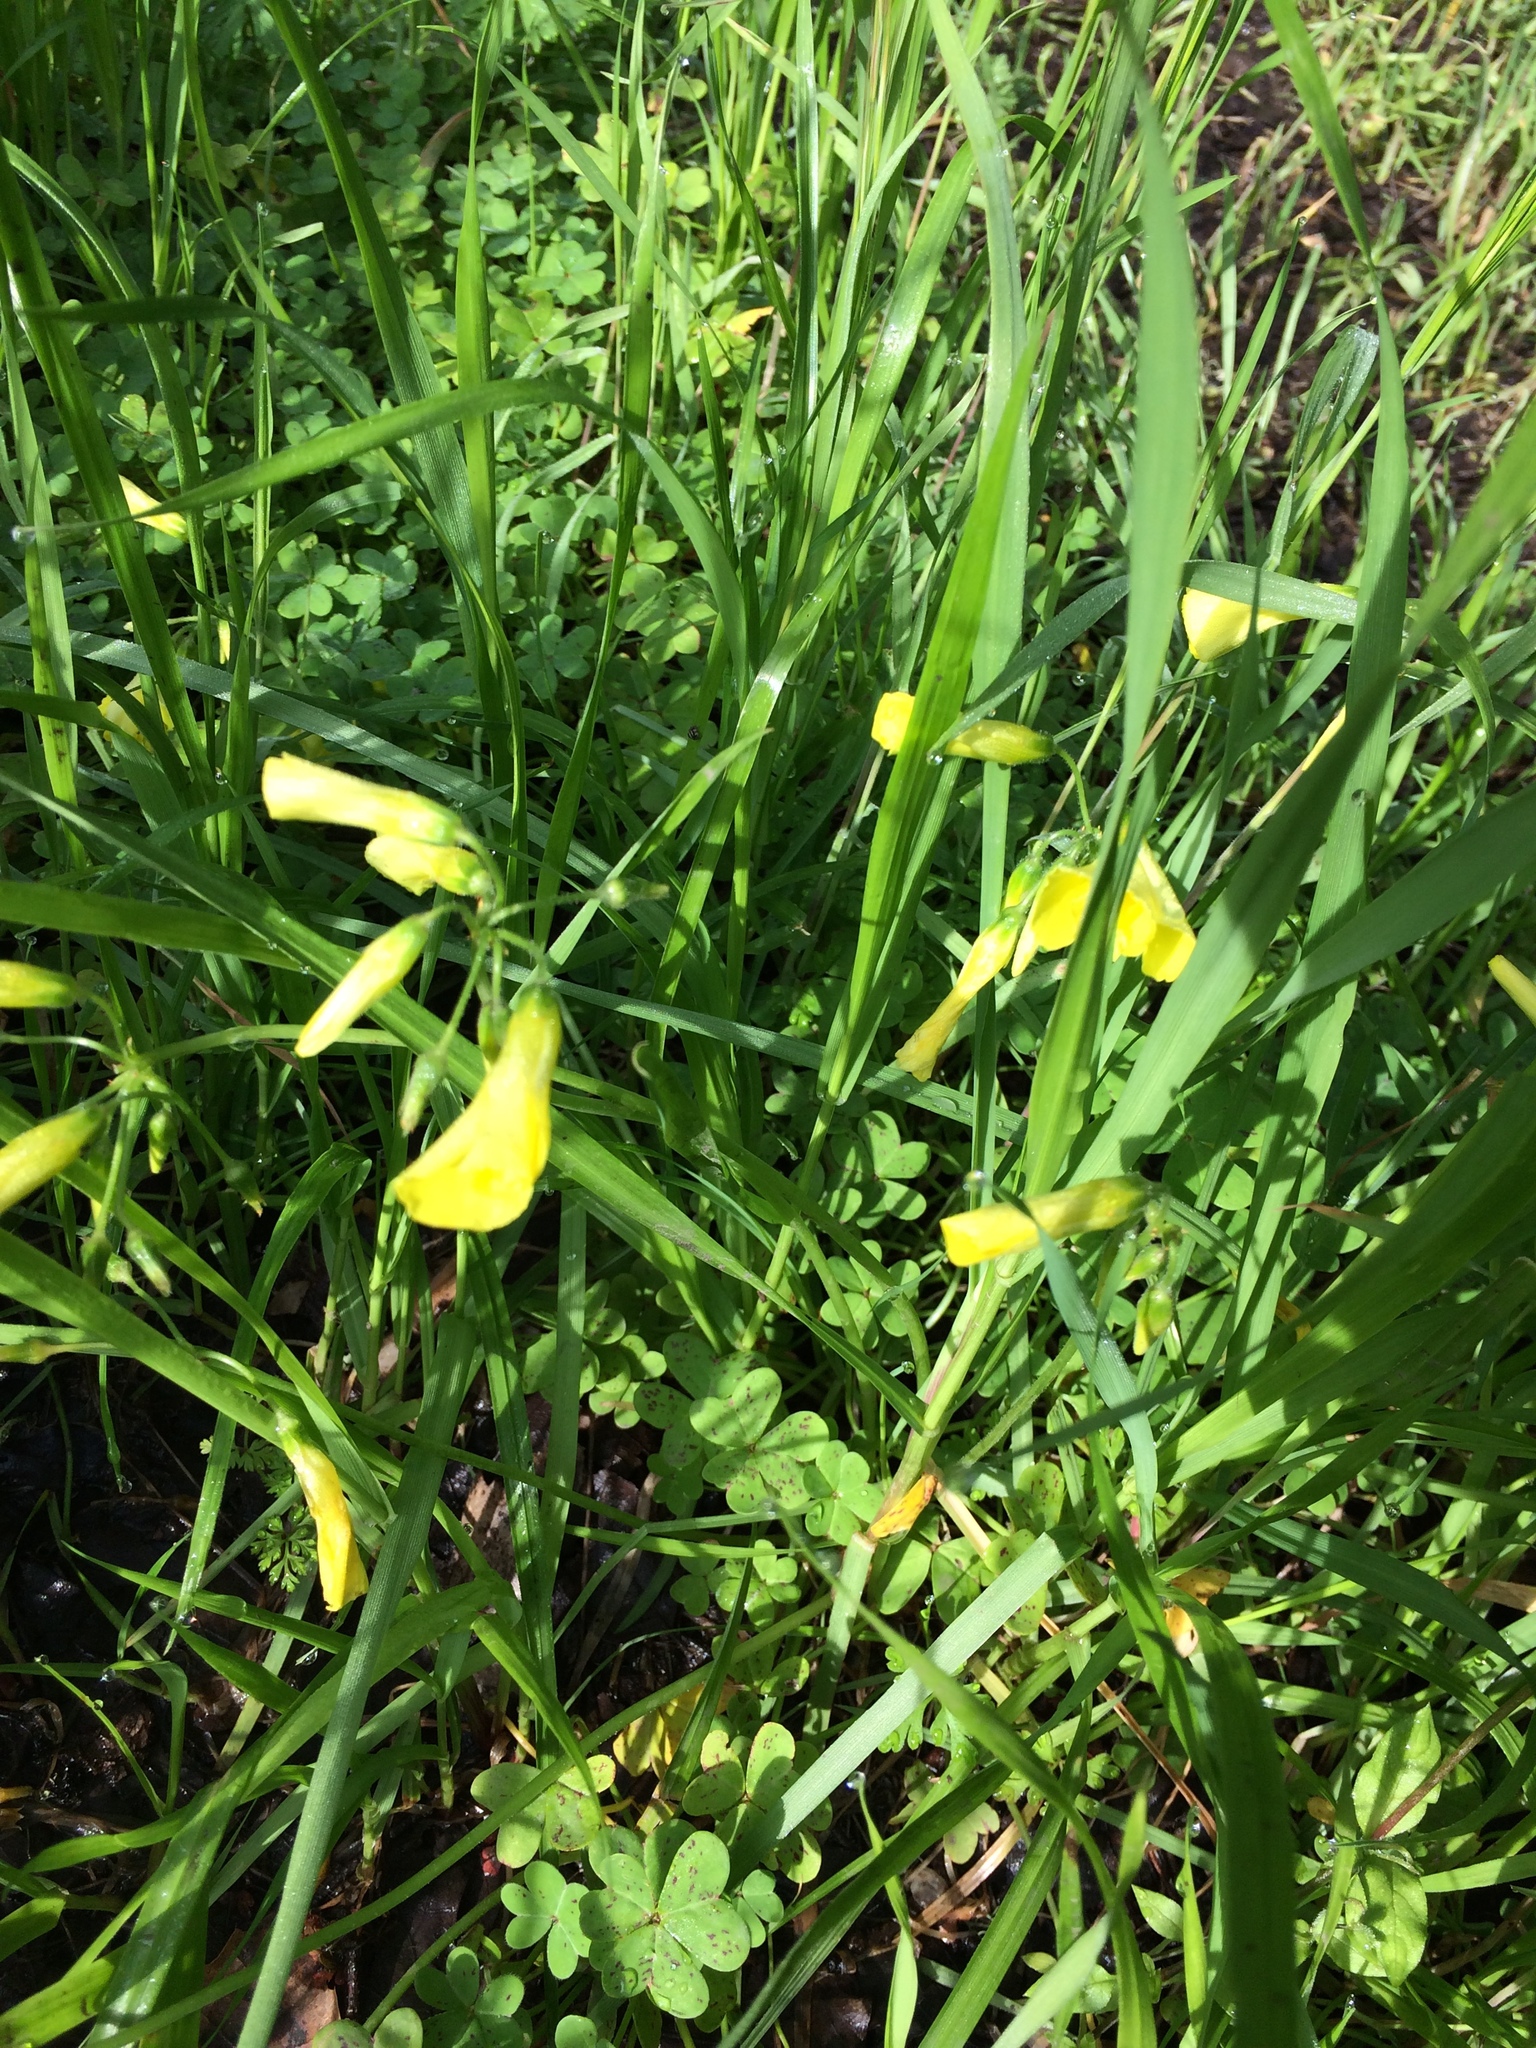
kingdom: Plantae
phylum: Tracheophyta
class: Magnoliopsida
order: Oxalidales
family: Oxalidaceae
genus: Oxalis
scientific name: Oxalis pes-caprae
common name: Bermuda-buttercup
